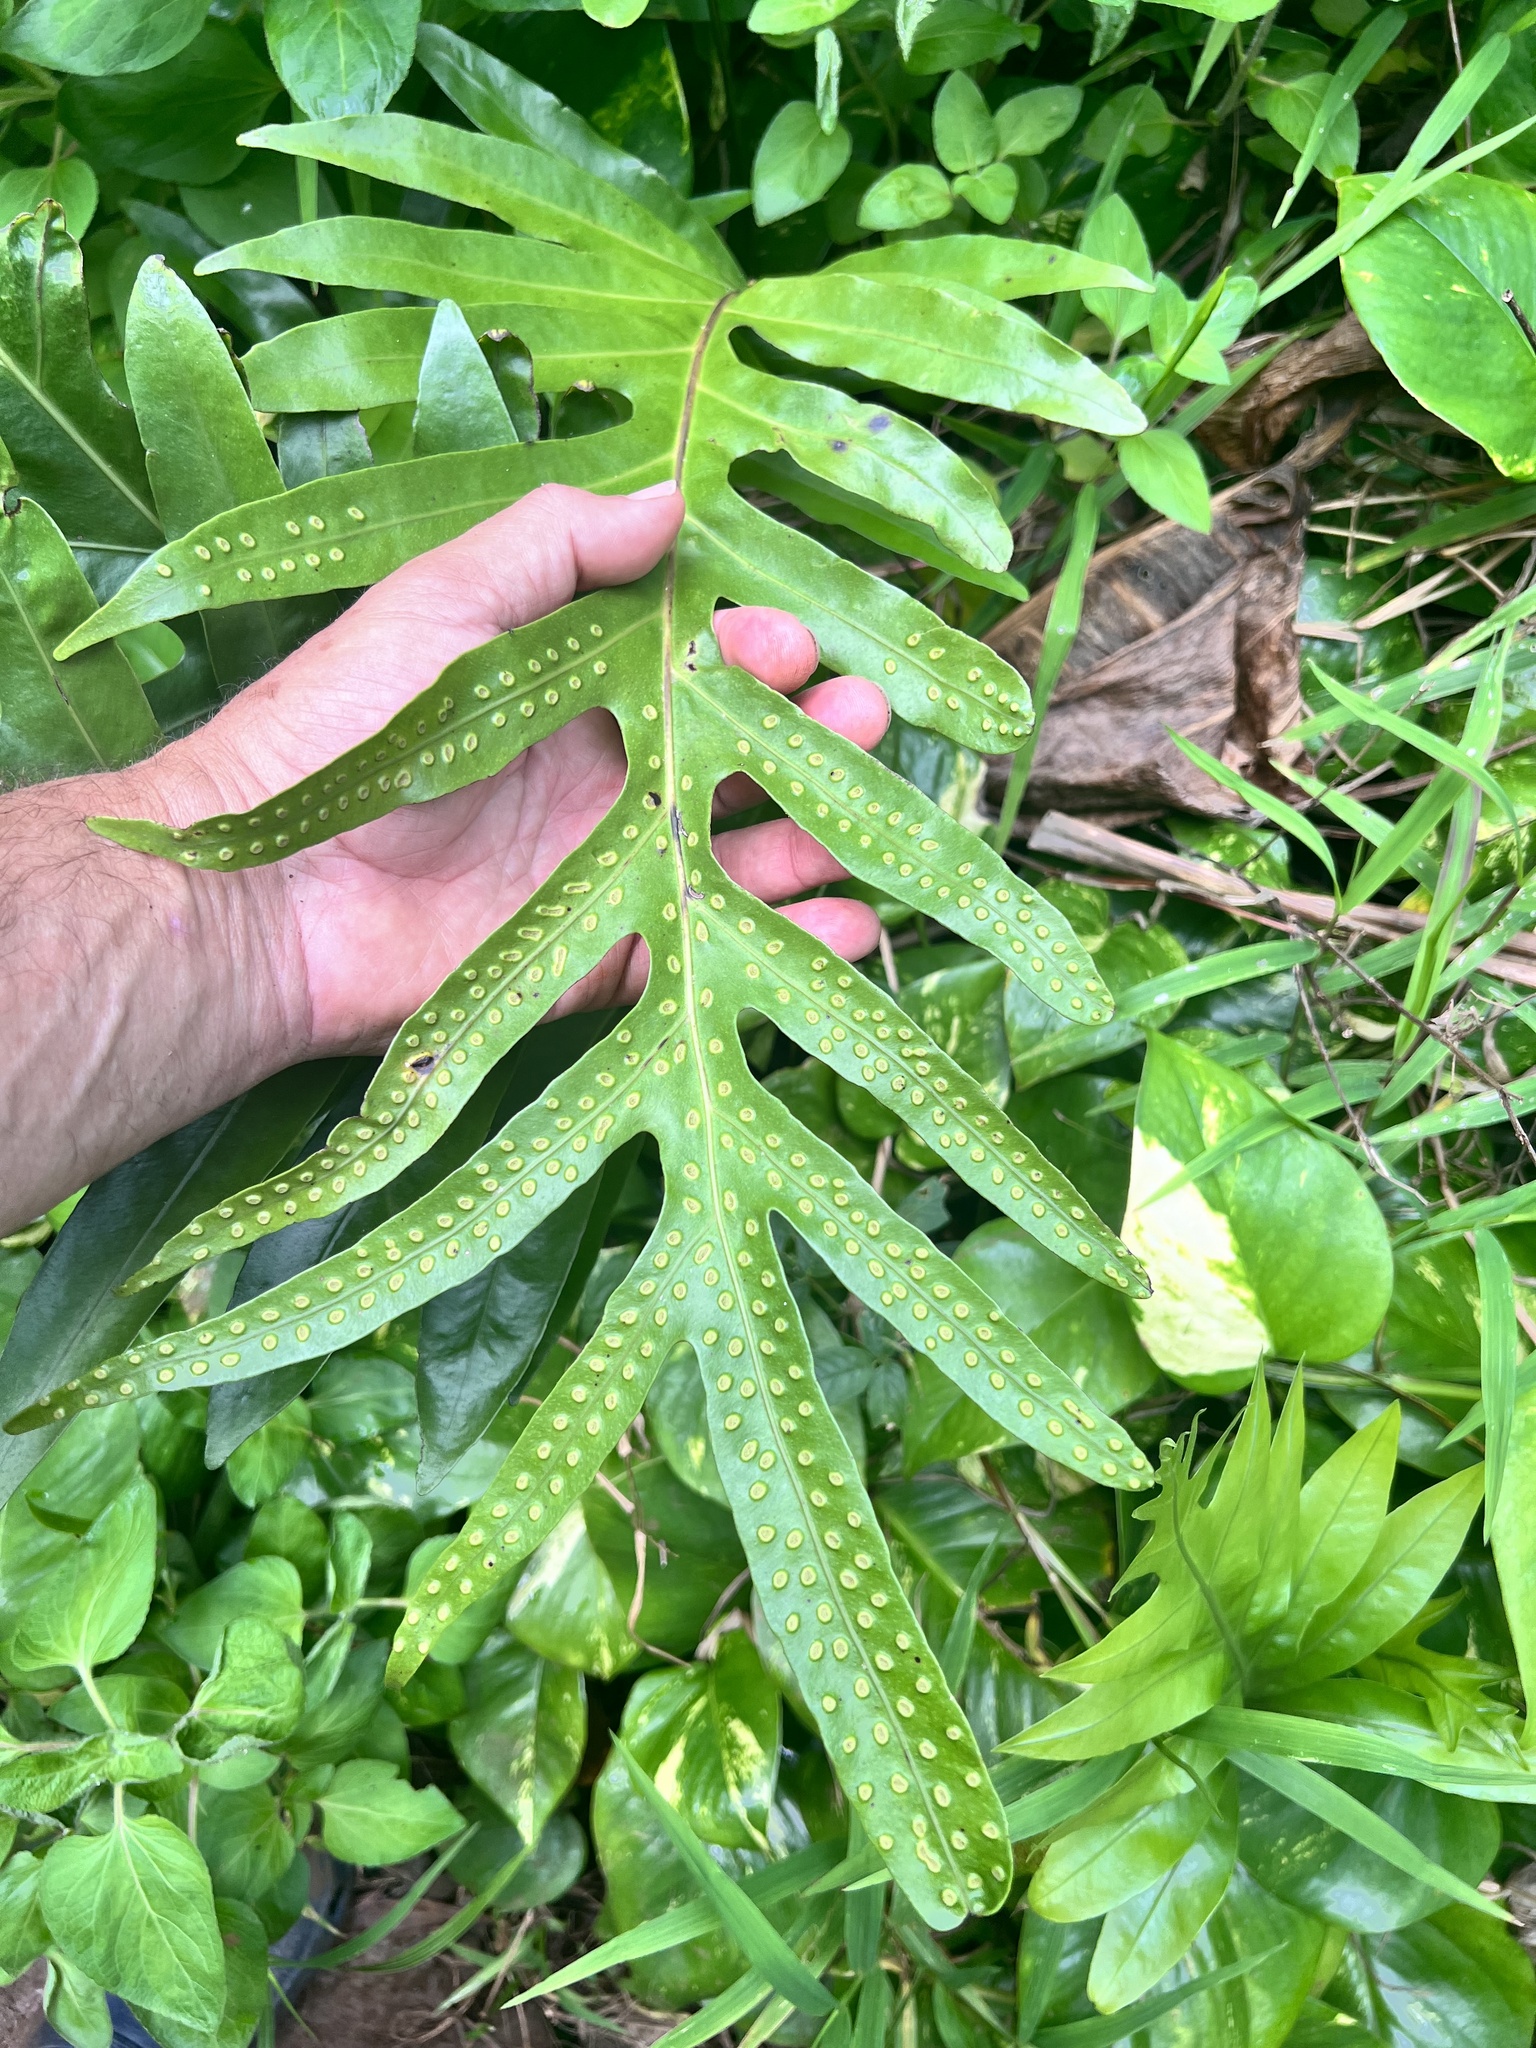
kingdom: Plantae
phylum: Tracheophyta
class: Polypodiopsida
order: Polypodiales
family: Polypodiaceae
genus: Microsorum
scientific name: Microsorum grossum
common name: Musk fern
